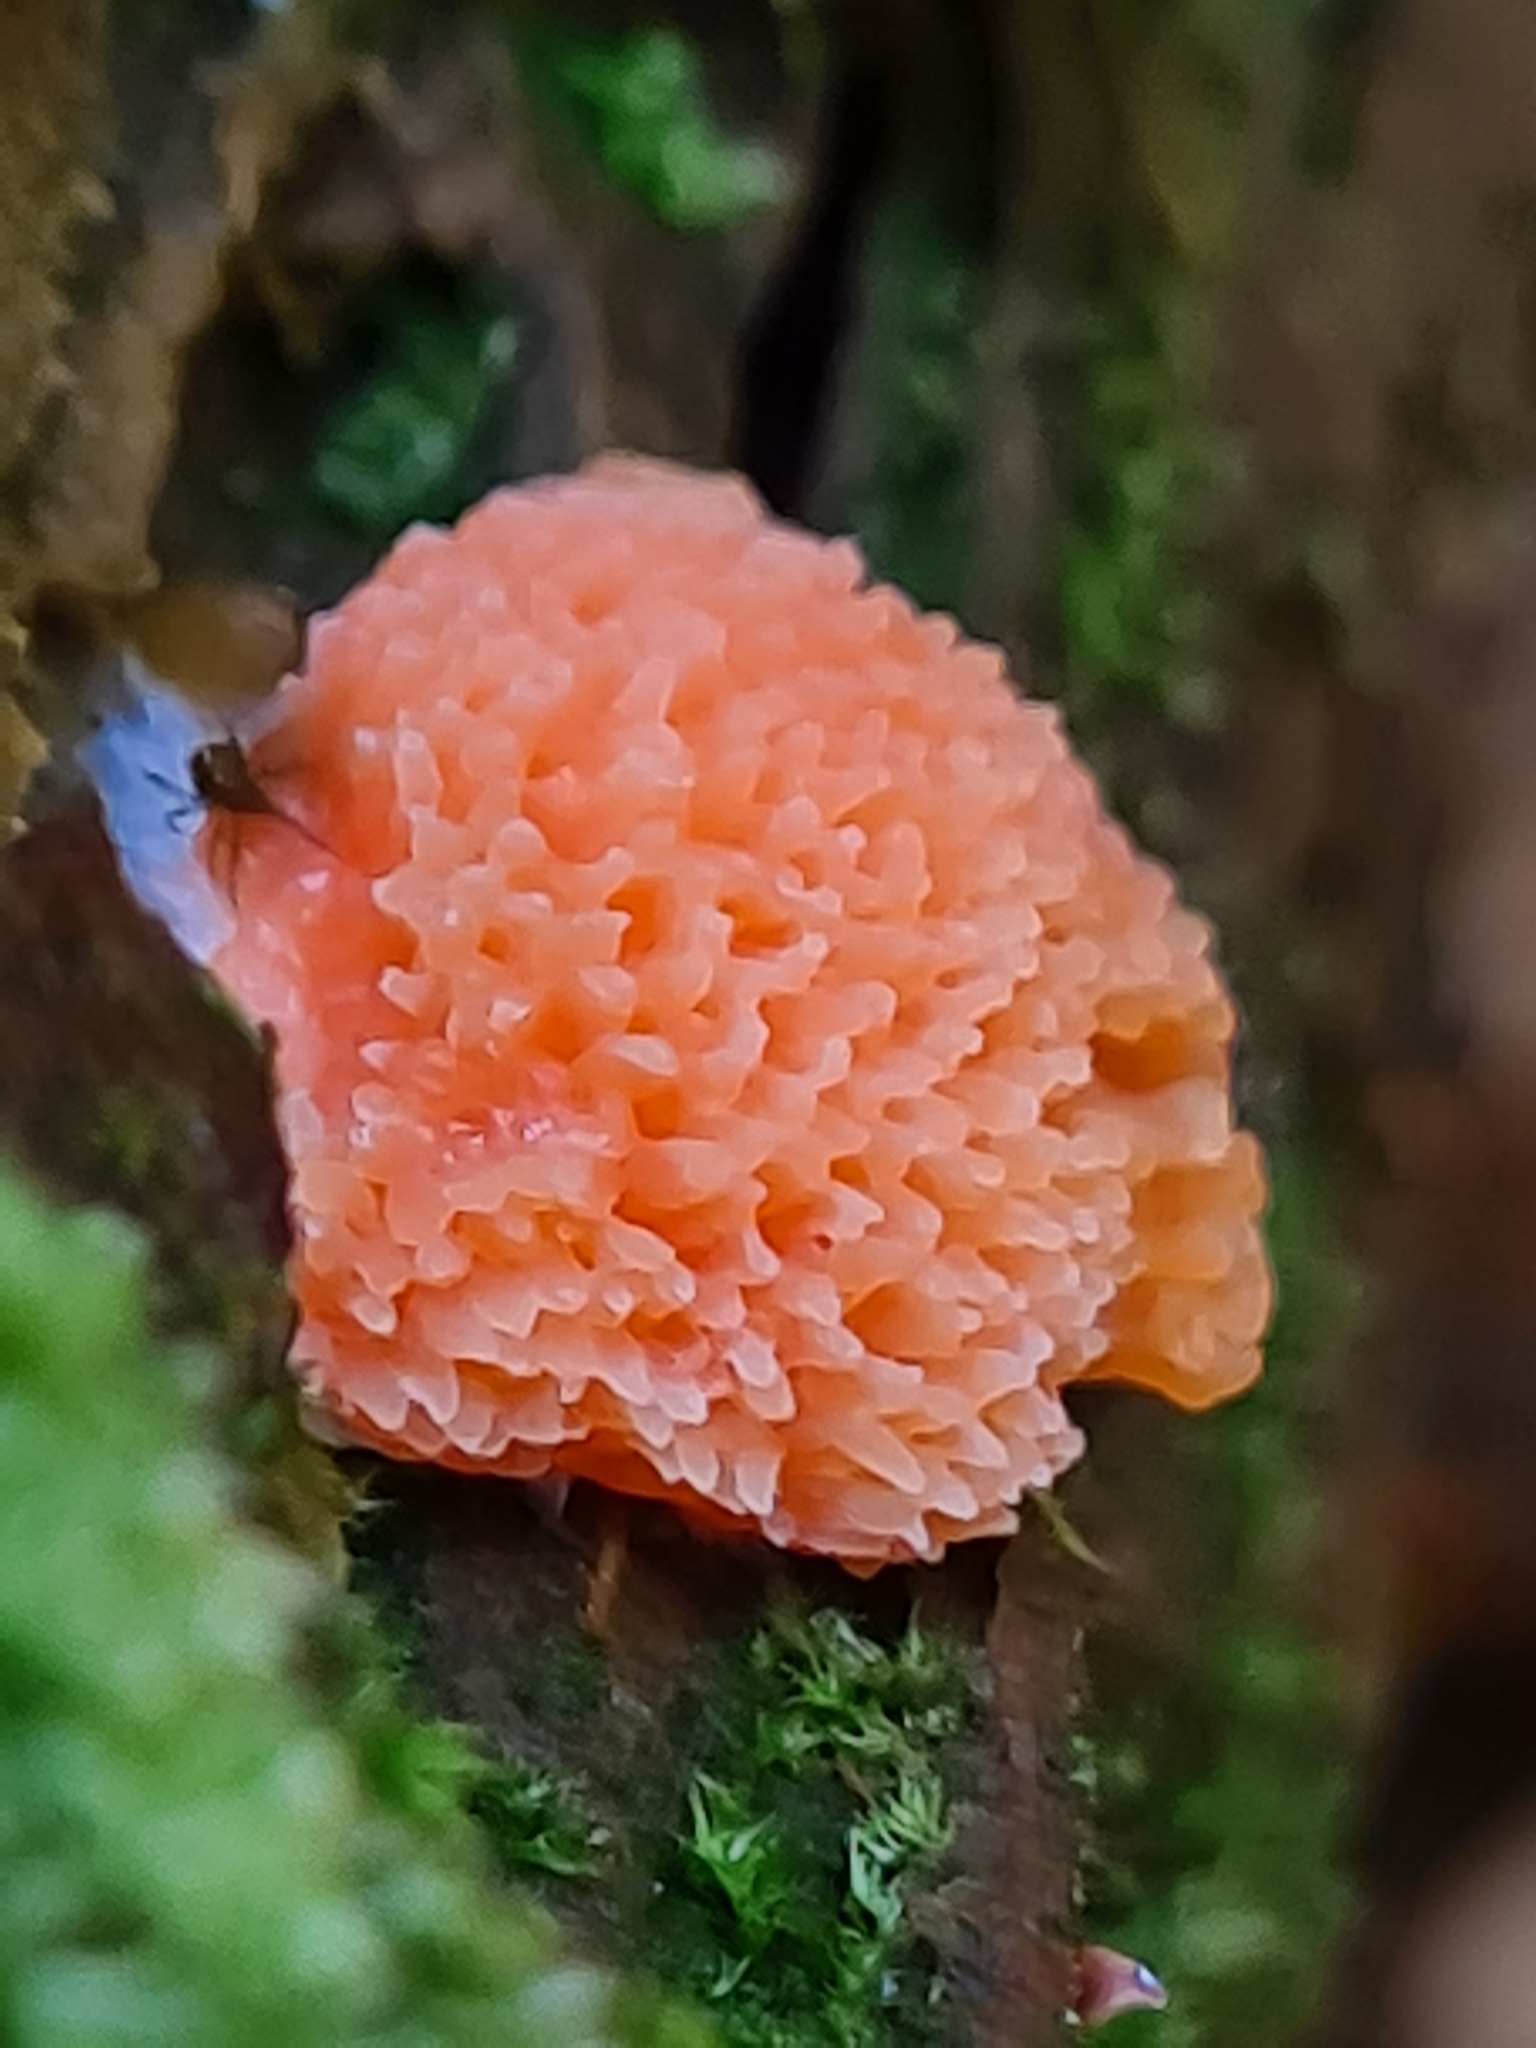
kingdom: Protozoa
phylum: Mycetozoa
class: Myxomycetes
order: Cribrariales
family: Tubiferaceae
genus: Tubifera
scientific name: Tubifera ferruginosa
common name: Red raspberry slime mold
